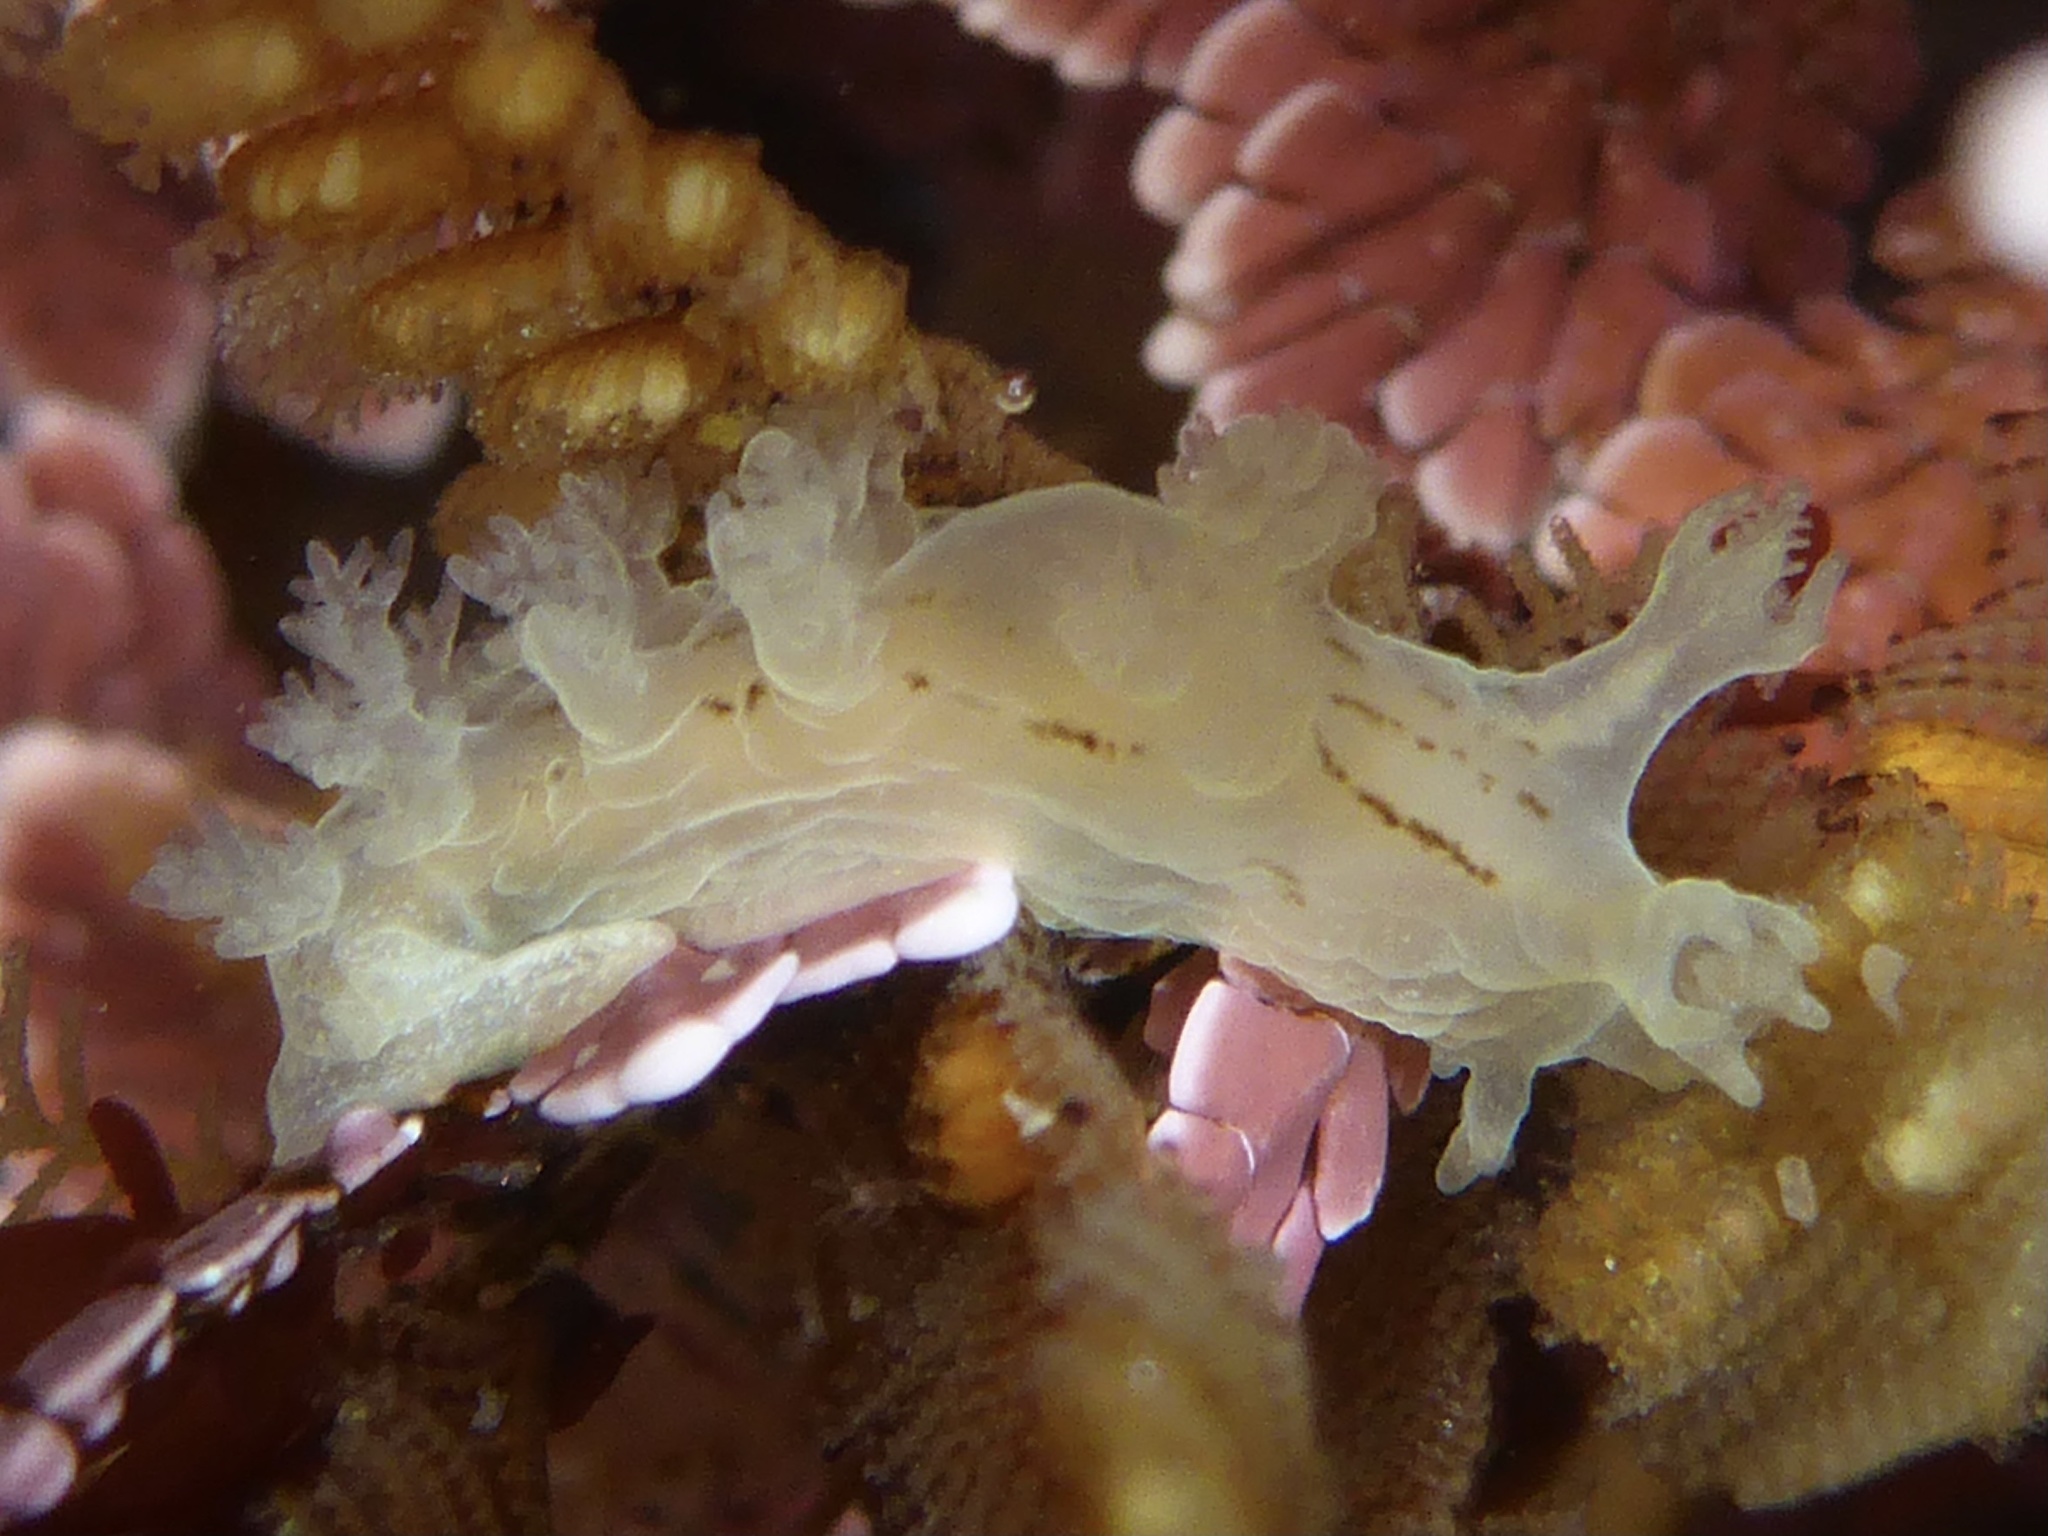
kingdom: Animalia
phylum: Mollusca
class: Gastropoda
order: Nudibranchia
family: Dendronotidae
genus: Dendronotus
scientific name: Dendronotus subramosus
